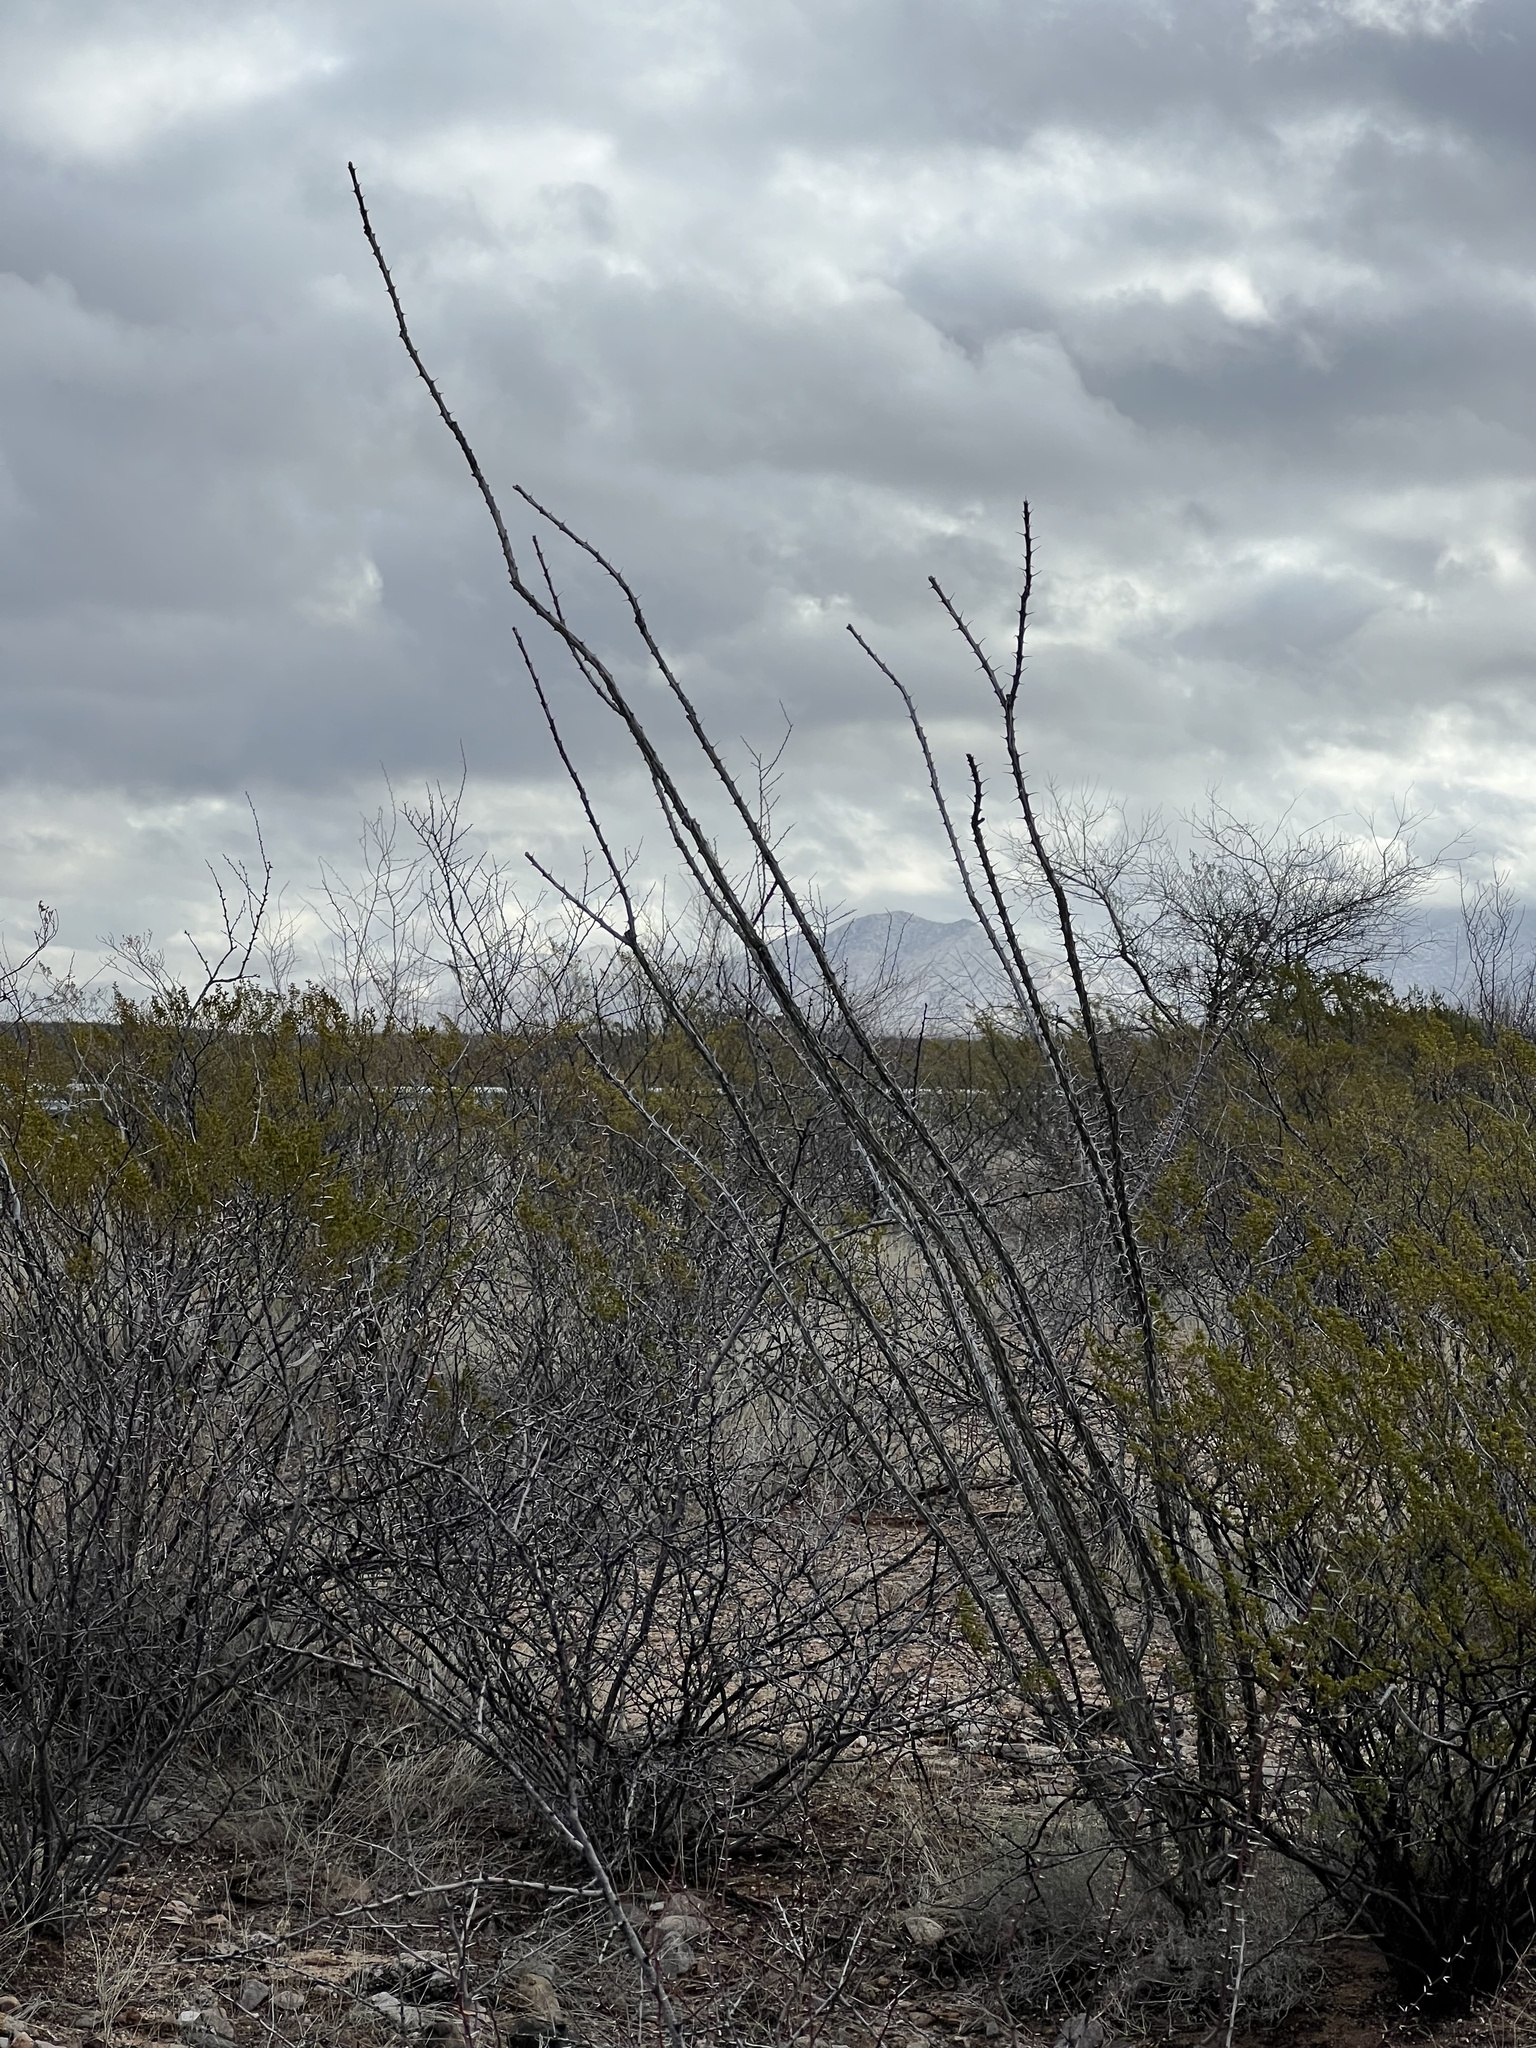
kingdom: Plantae
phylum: Tracheophyta
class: Magnoliopsida
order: Ericales
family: Fouquieriaceae
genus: Fouquieria
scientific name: Fouquieria splendens
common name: Vine-cactus
